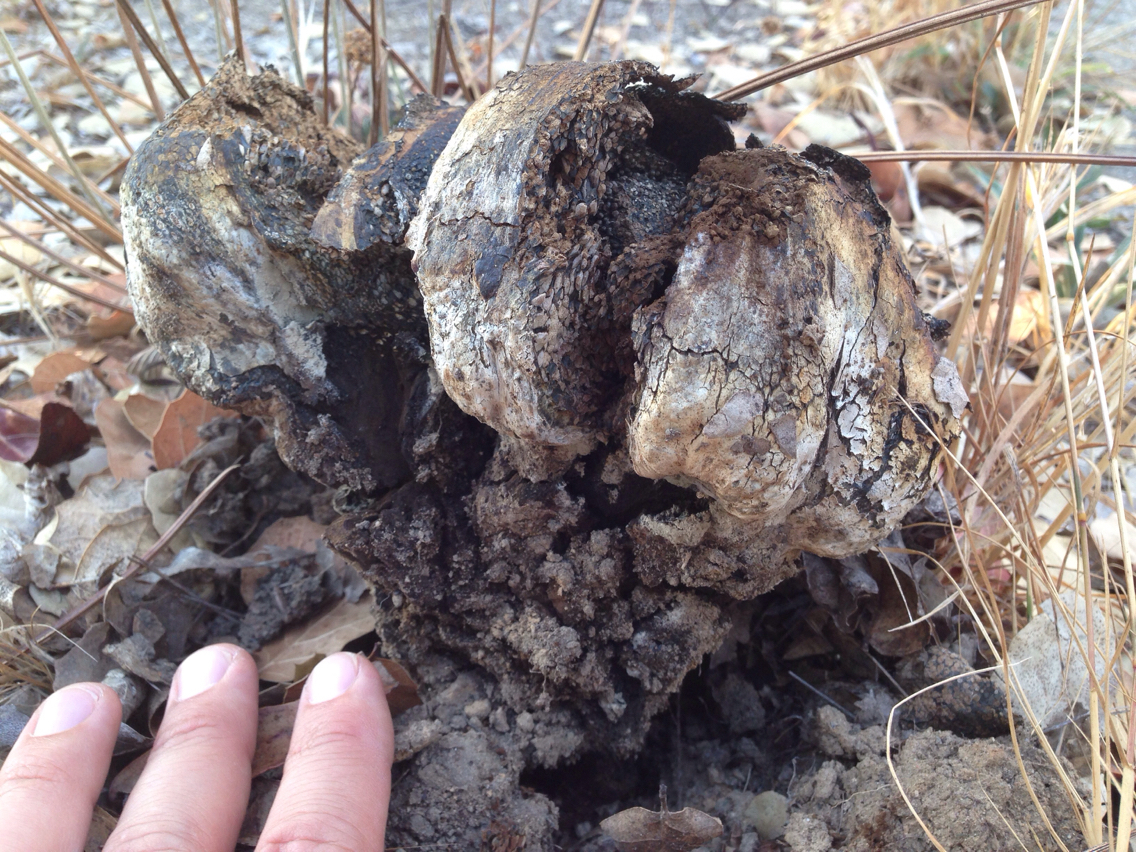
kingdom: Fungi
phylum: Basidiomycota
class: Agaricomycetes
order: Boletales
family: Sclerodermataceae
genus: Pisolithus
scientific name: Pisolithus tinctorius
